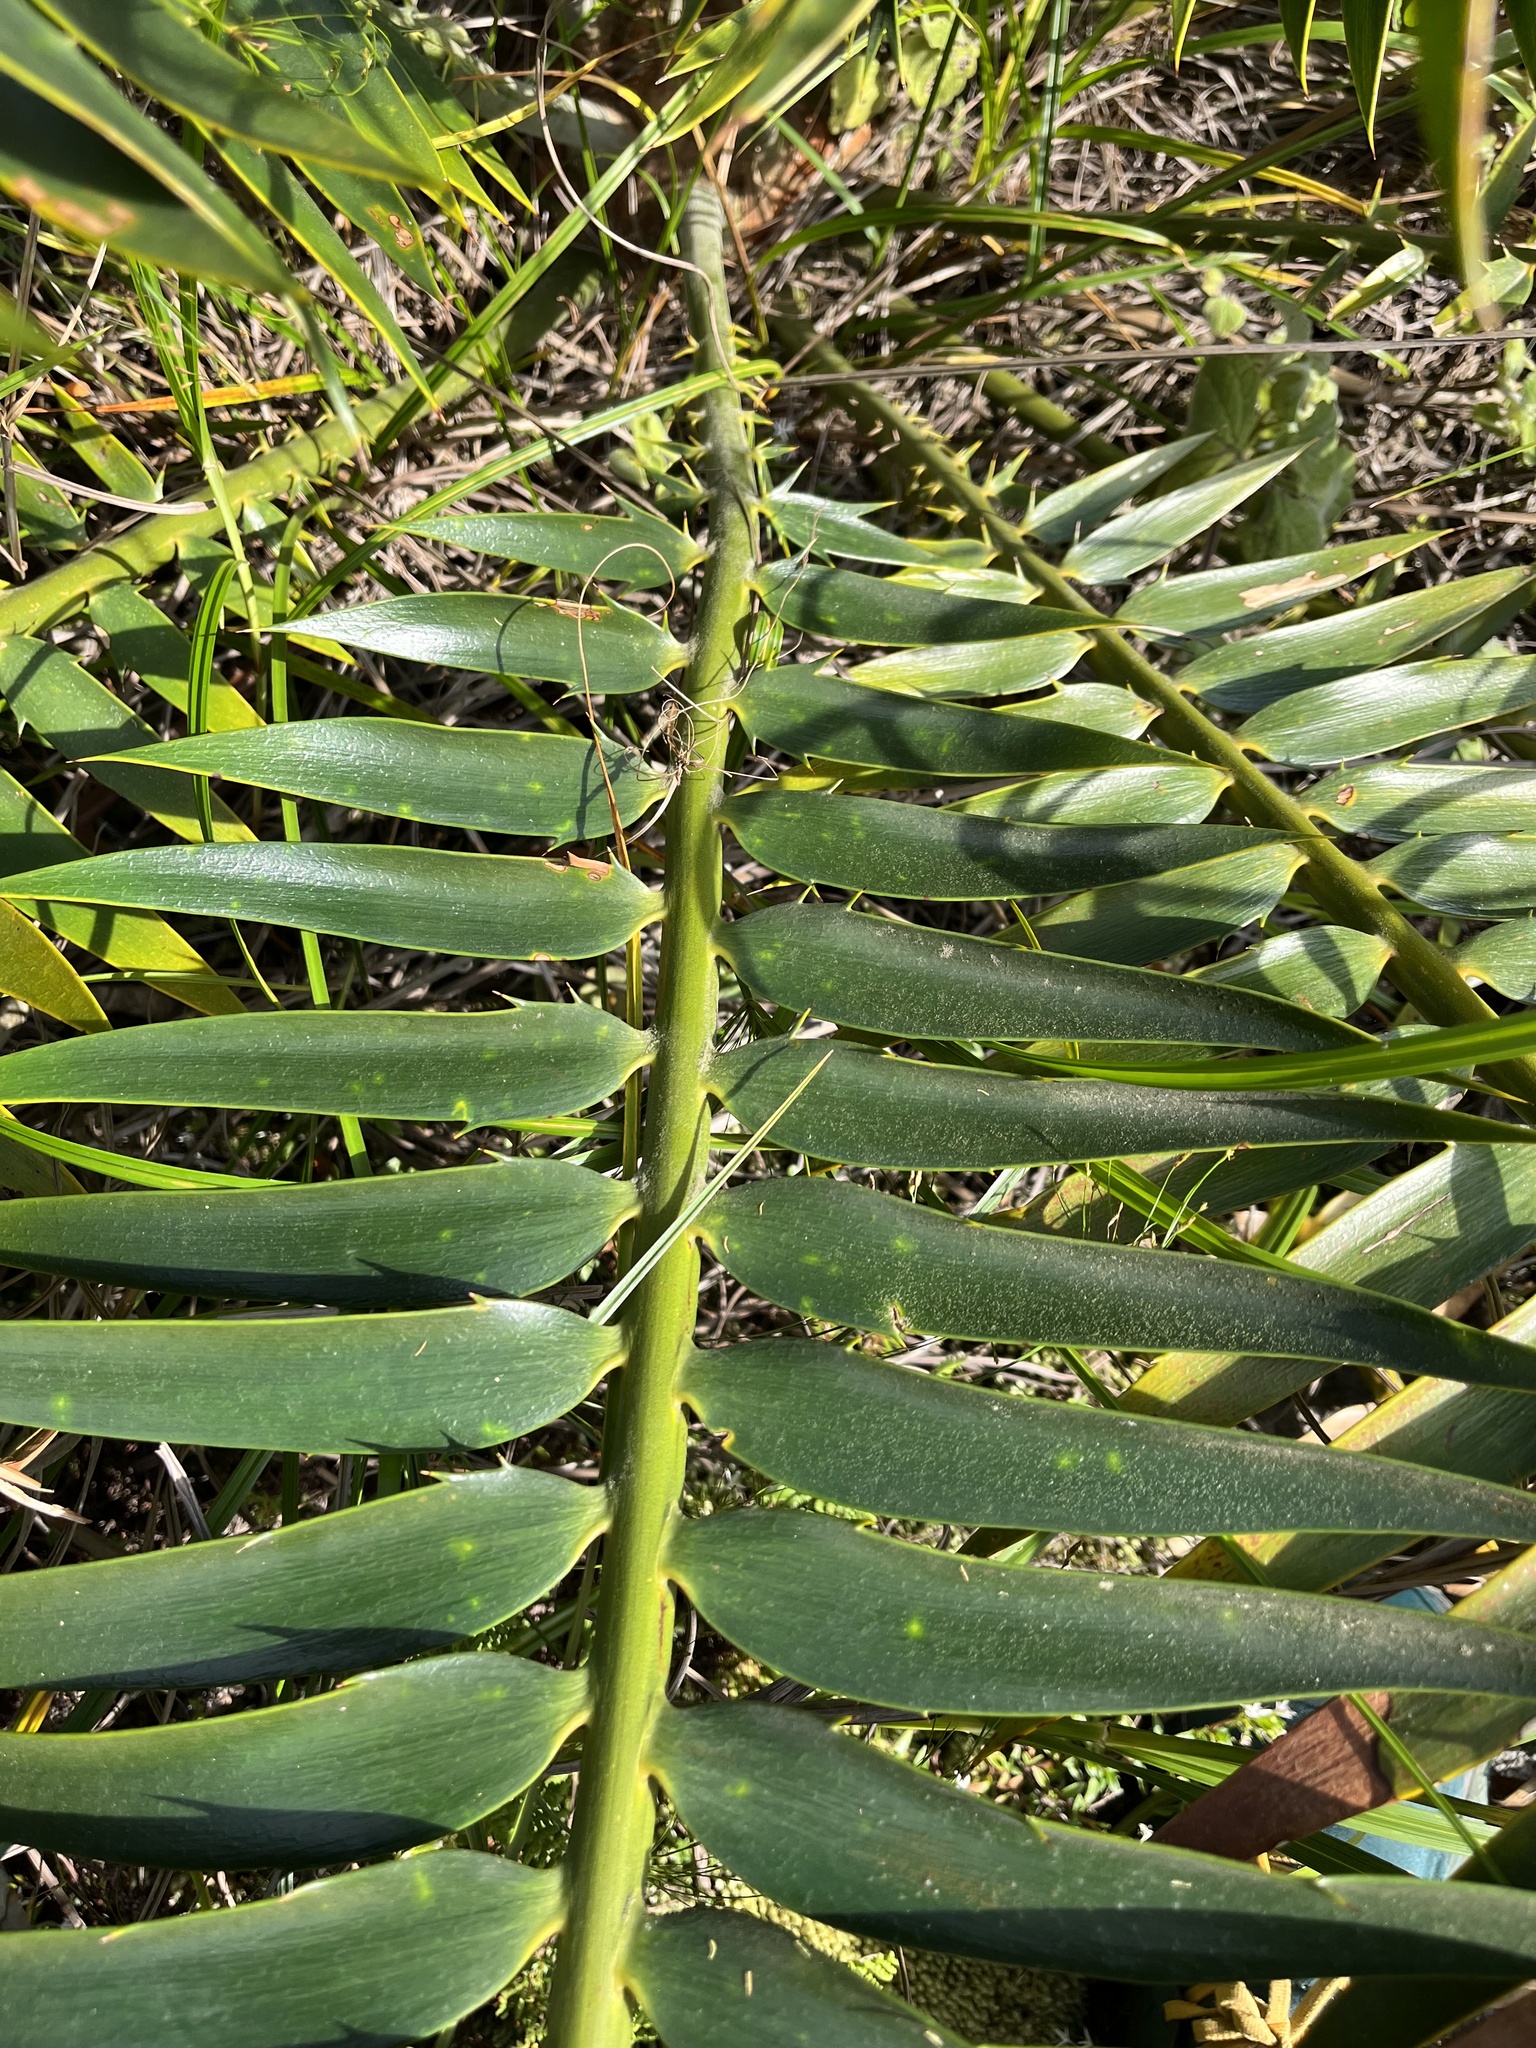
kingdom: Plantae
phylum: Tracheophyta
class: Cycadopsida
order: Cycadales
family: Zamiaceae
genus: Encephalartos
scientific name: Encephalartos paucidentatus
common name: Barberton cycad
